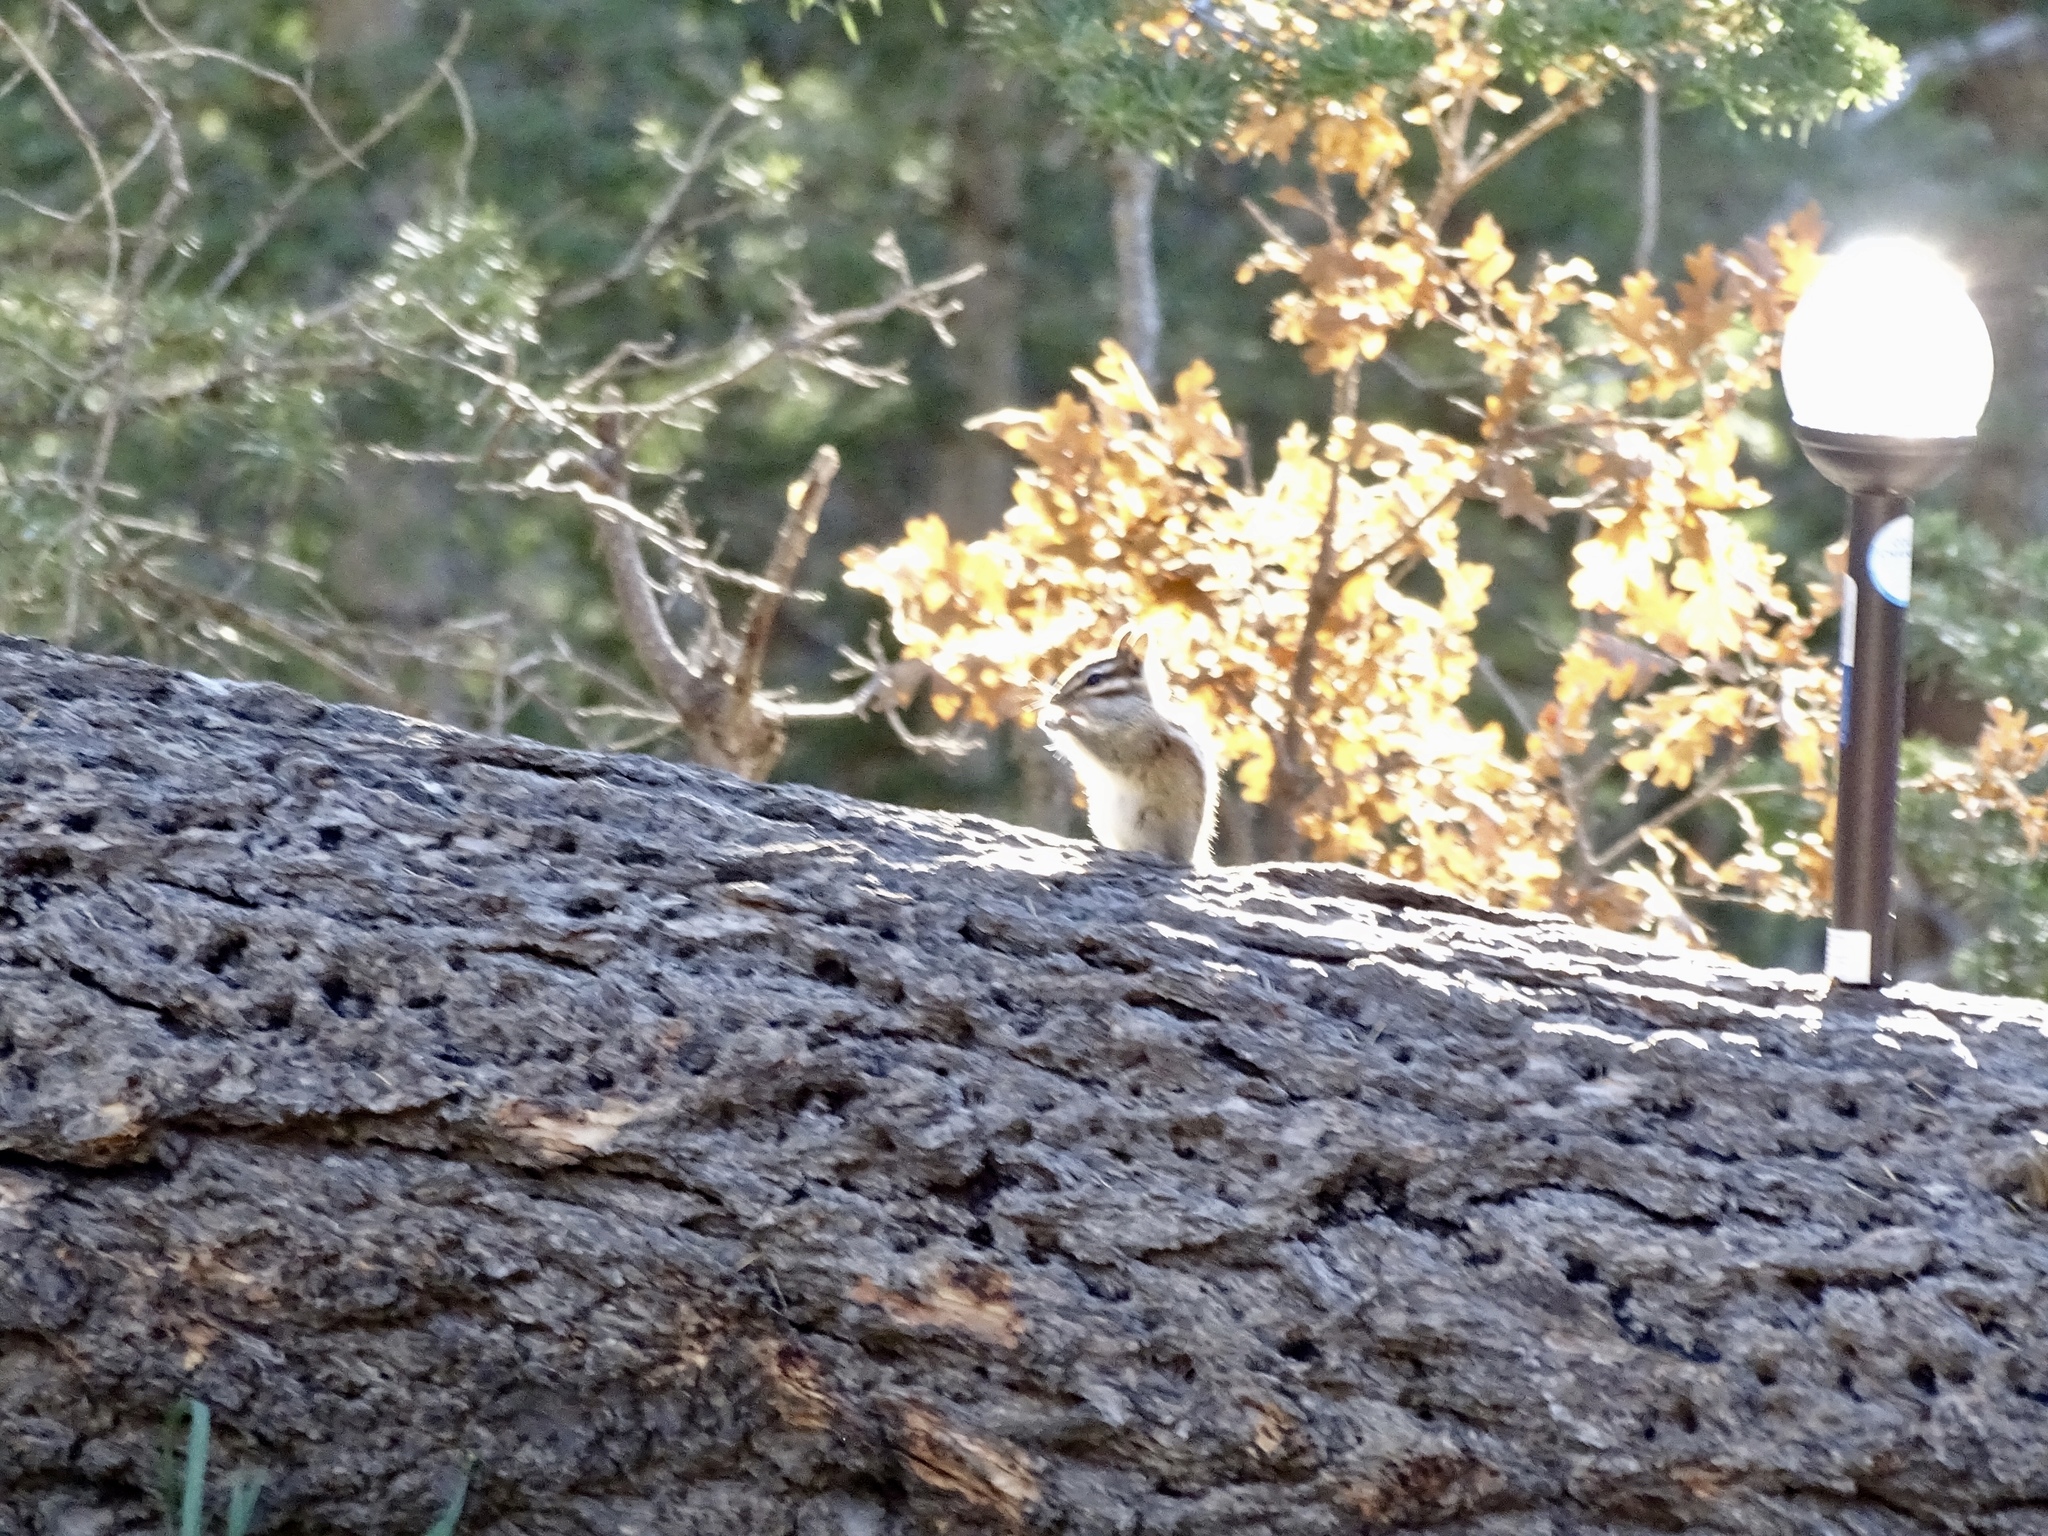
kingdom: Animalia
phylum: Chordata
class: Mammalia
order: Rodentia
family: Sciuridae
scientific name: Sciuridae
